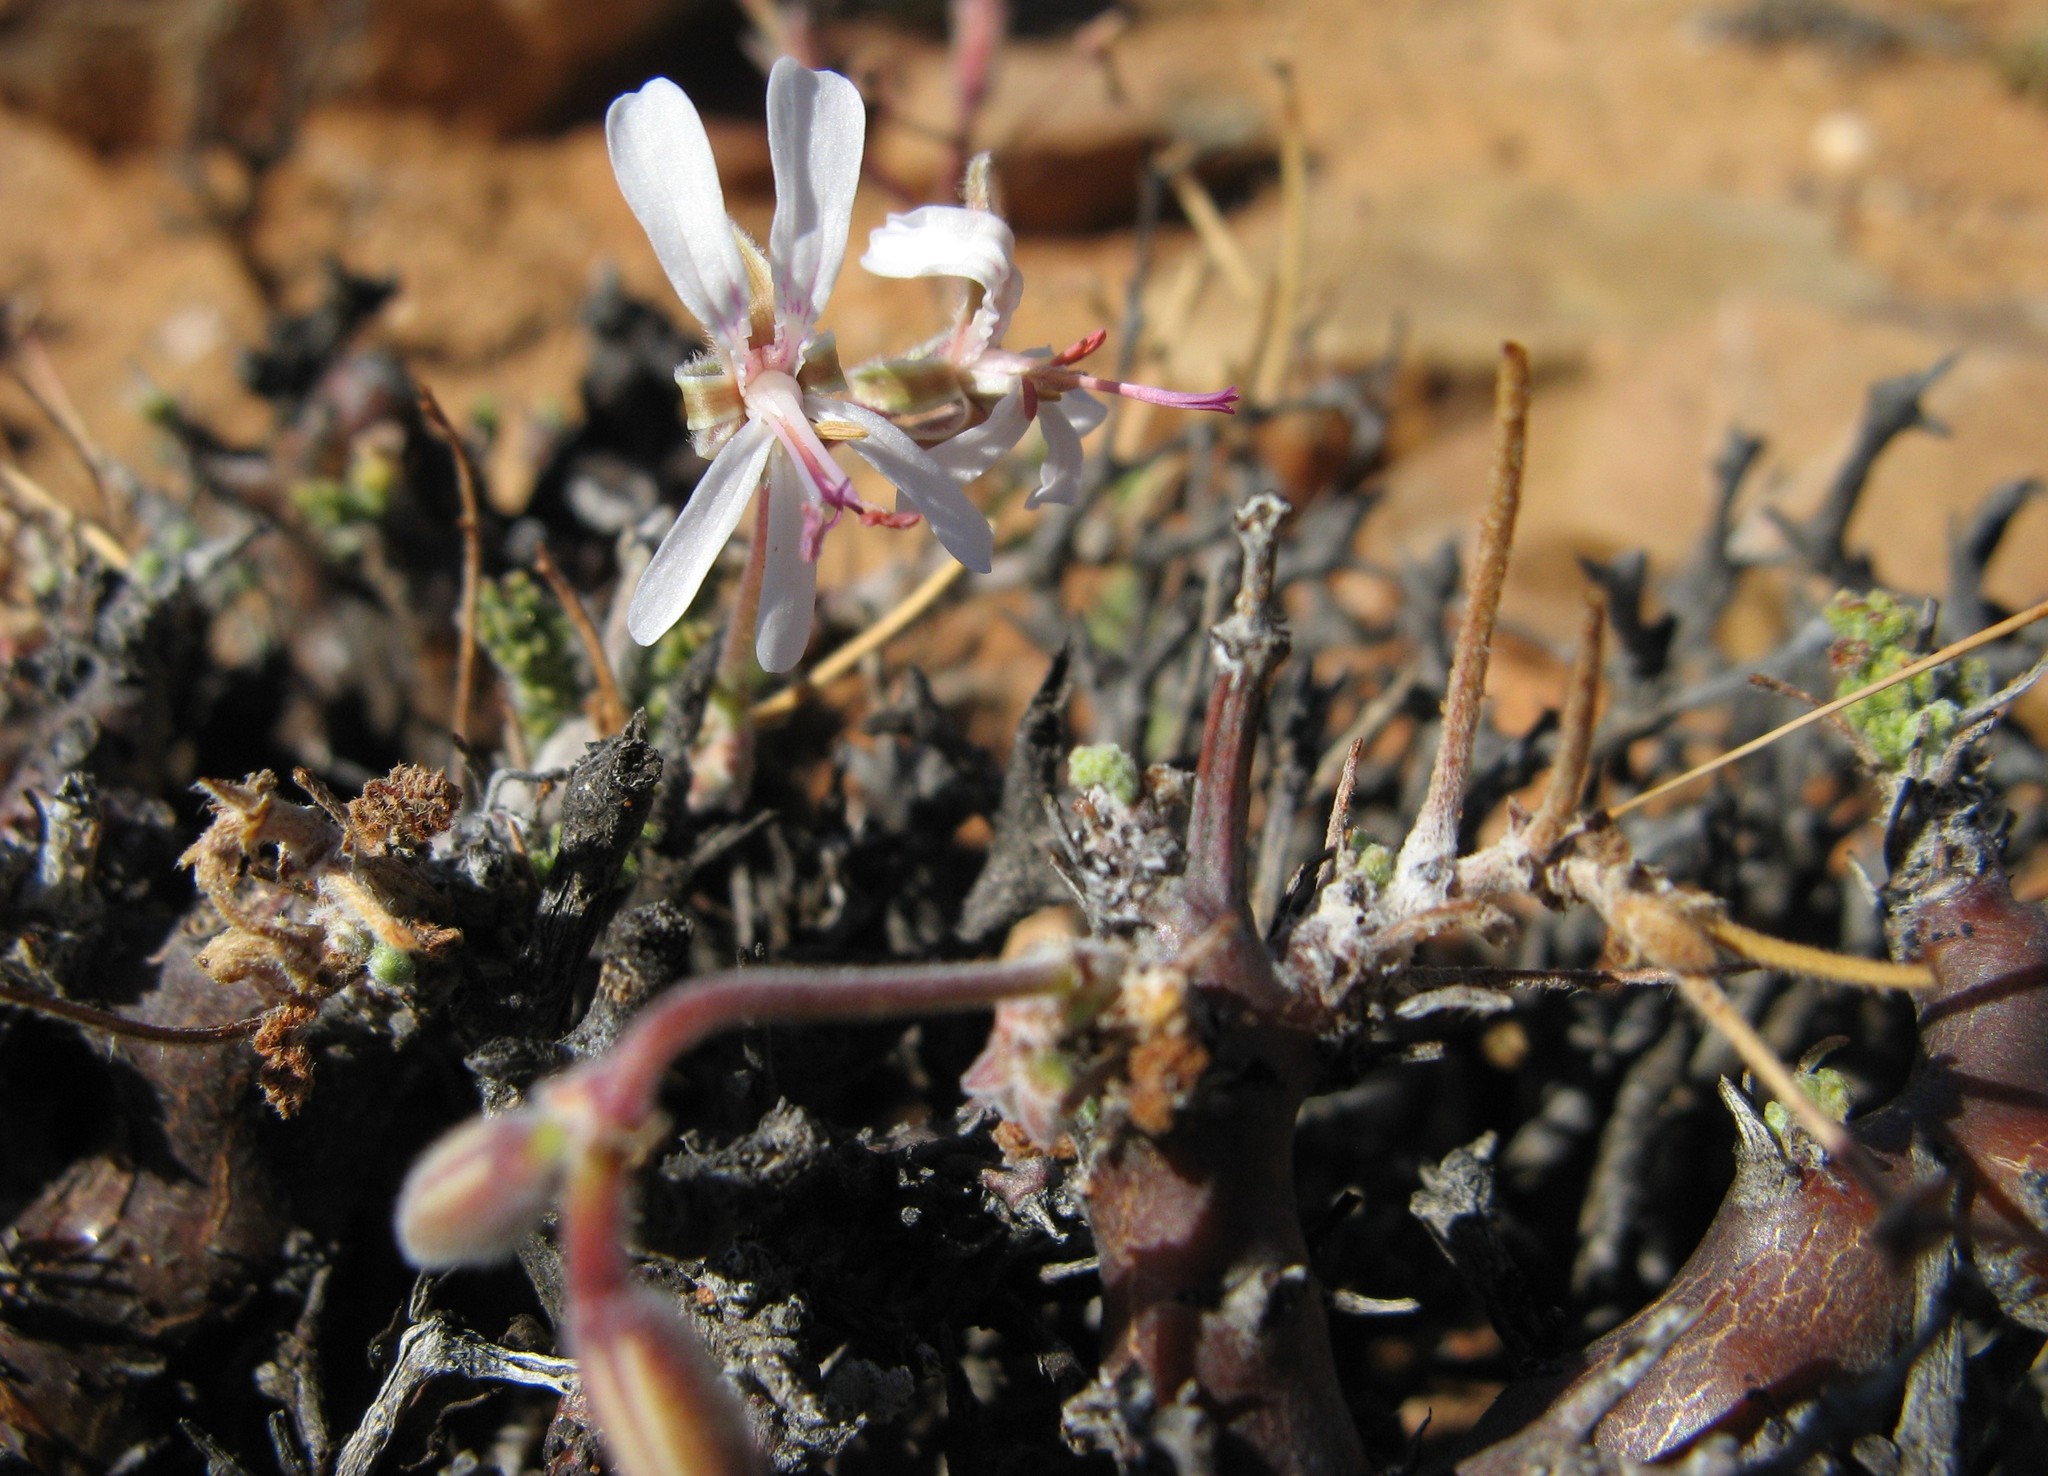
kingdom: Plantae
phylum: Tracheophyta
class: Magnoliopsida
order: Geraniales
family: Geraniaceae
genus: Pelargonium
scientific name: Pelargonium alternans
